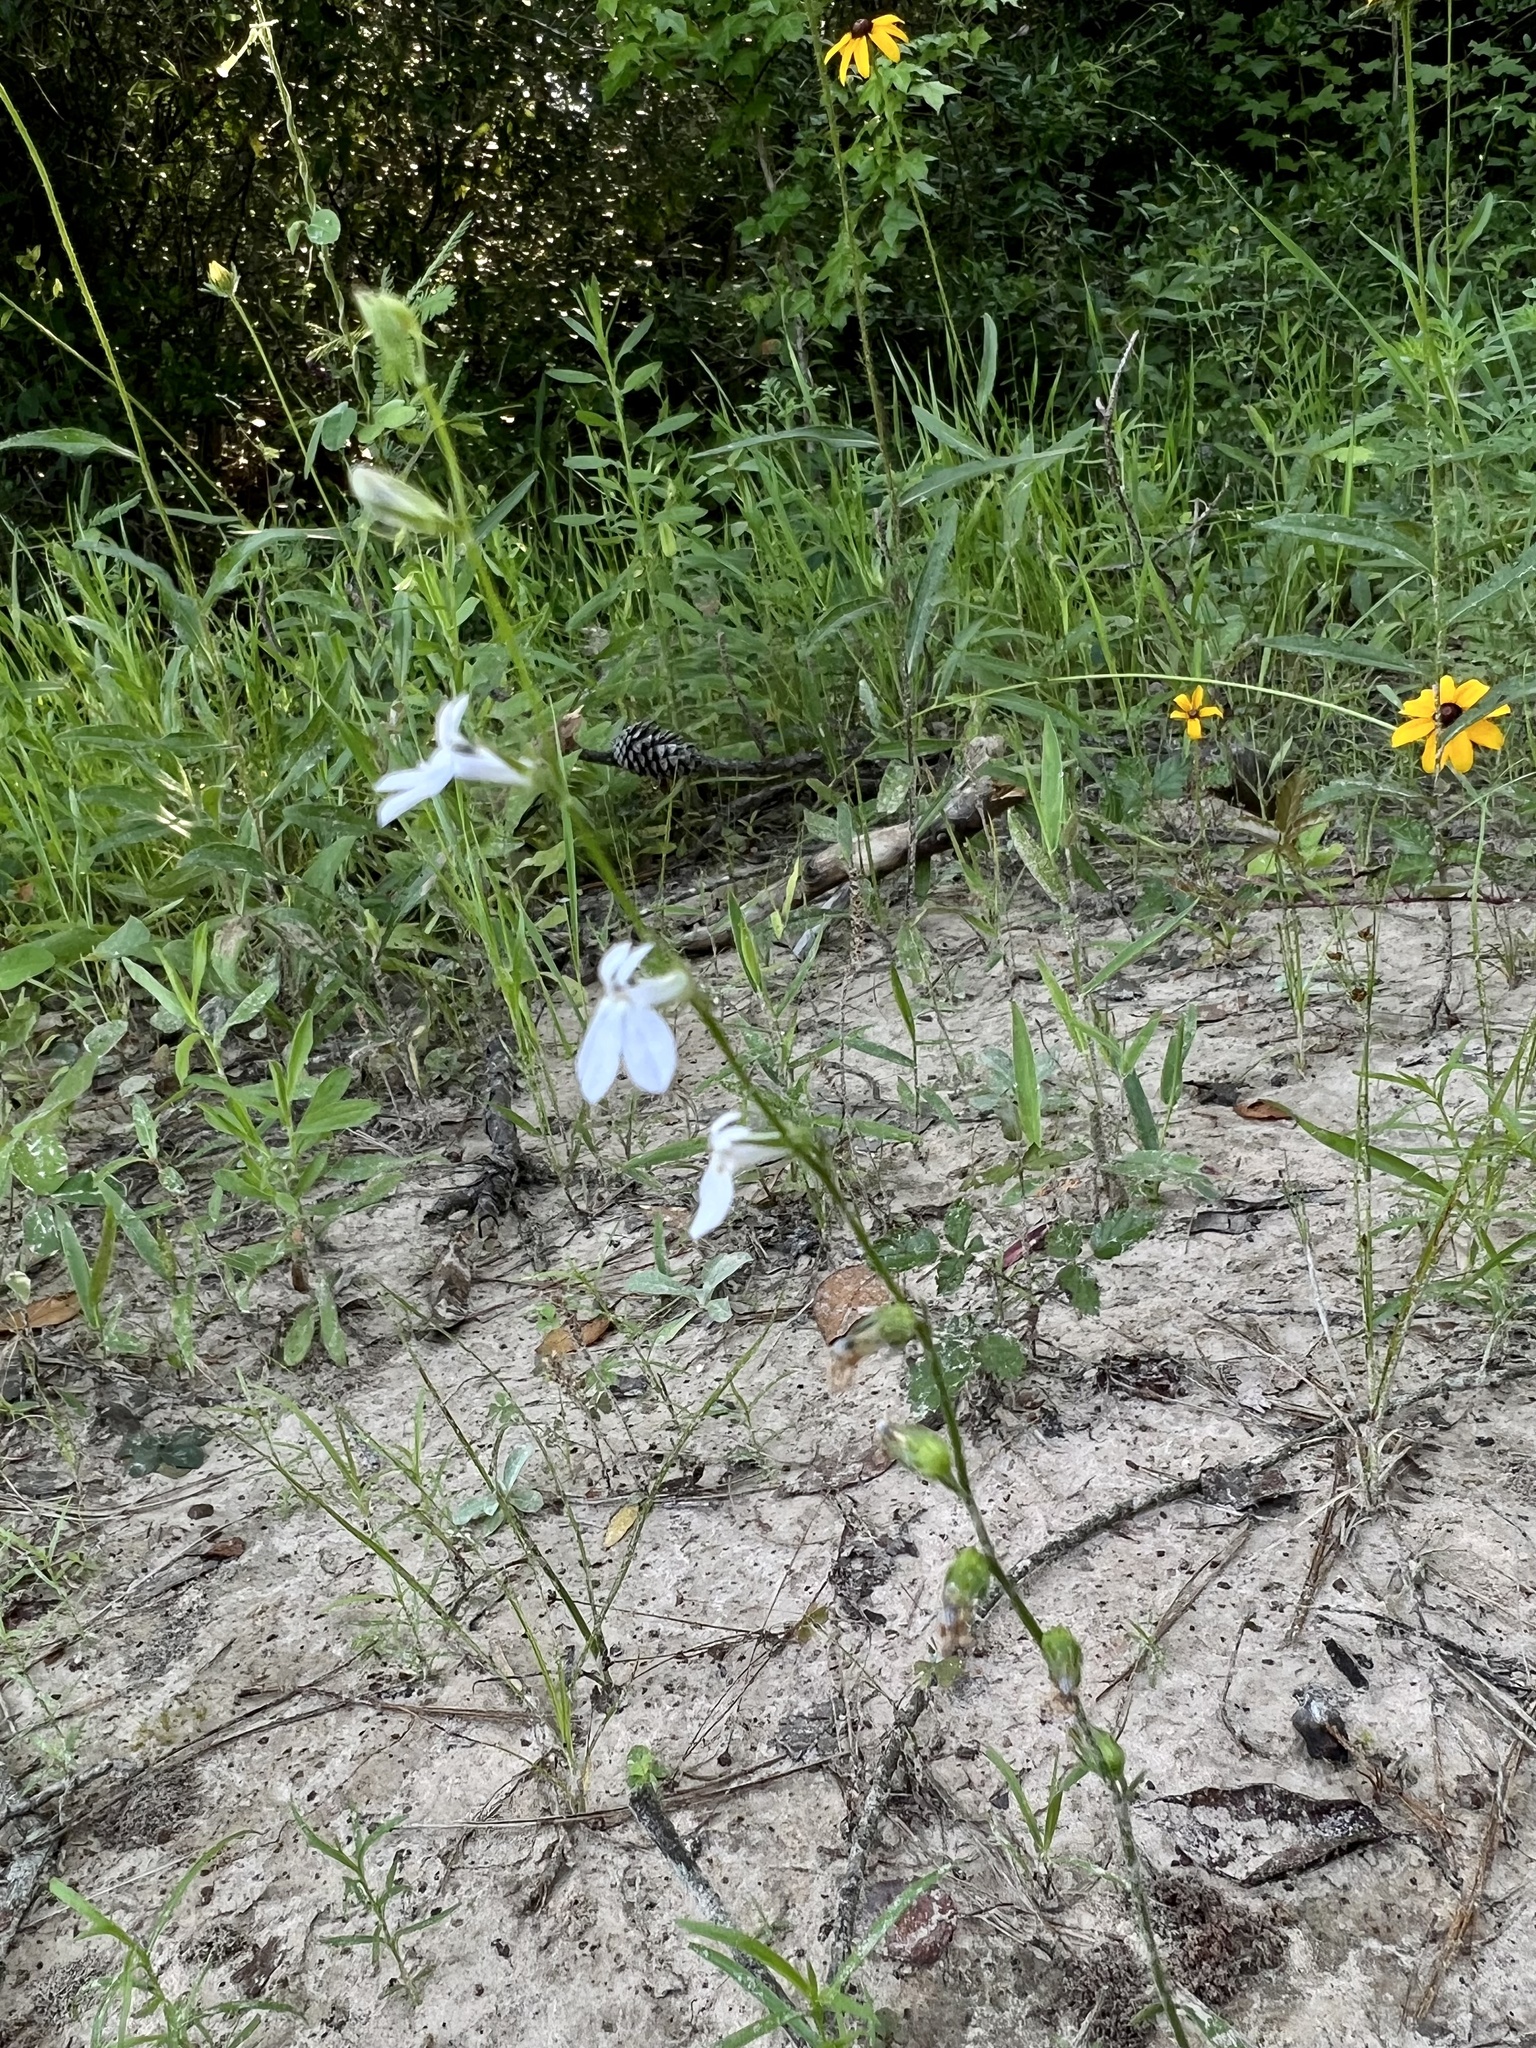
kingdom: Plantae
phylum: Tracheophyta
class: Magnoliopsida
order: Asterales
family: Campanulaceae
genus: Lobelia
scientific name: Lobelia appendiculata
